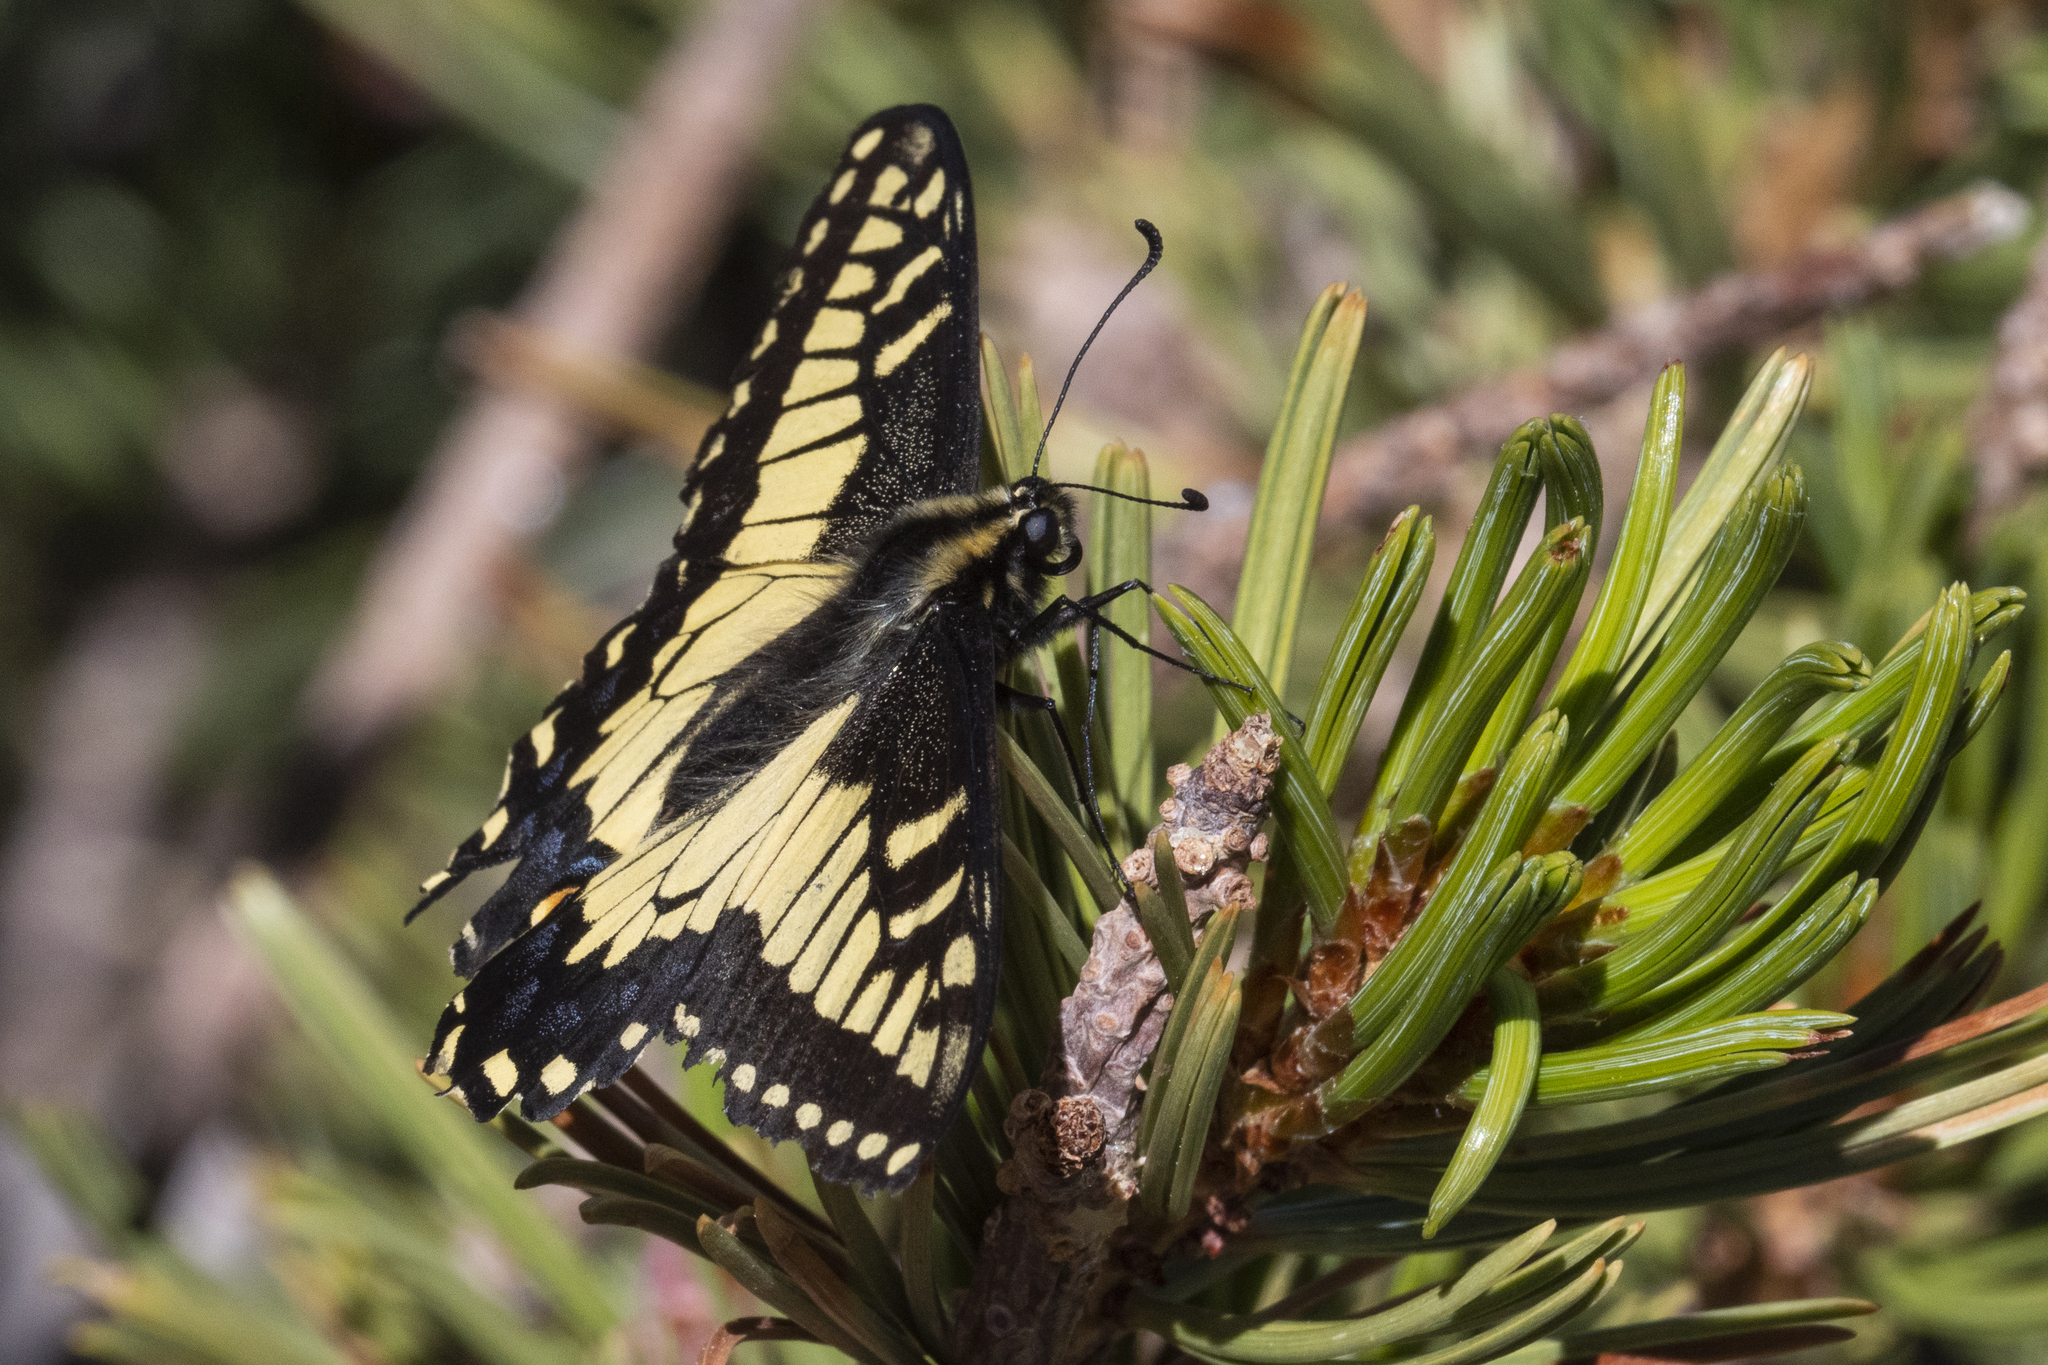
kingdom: Animalia
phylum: Arthropoda
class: Insecta
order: Lepidoptera
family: Papilionidae
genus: Papilio
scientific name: Papilio zelicaon
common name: Anise swallowtail
